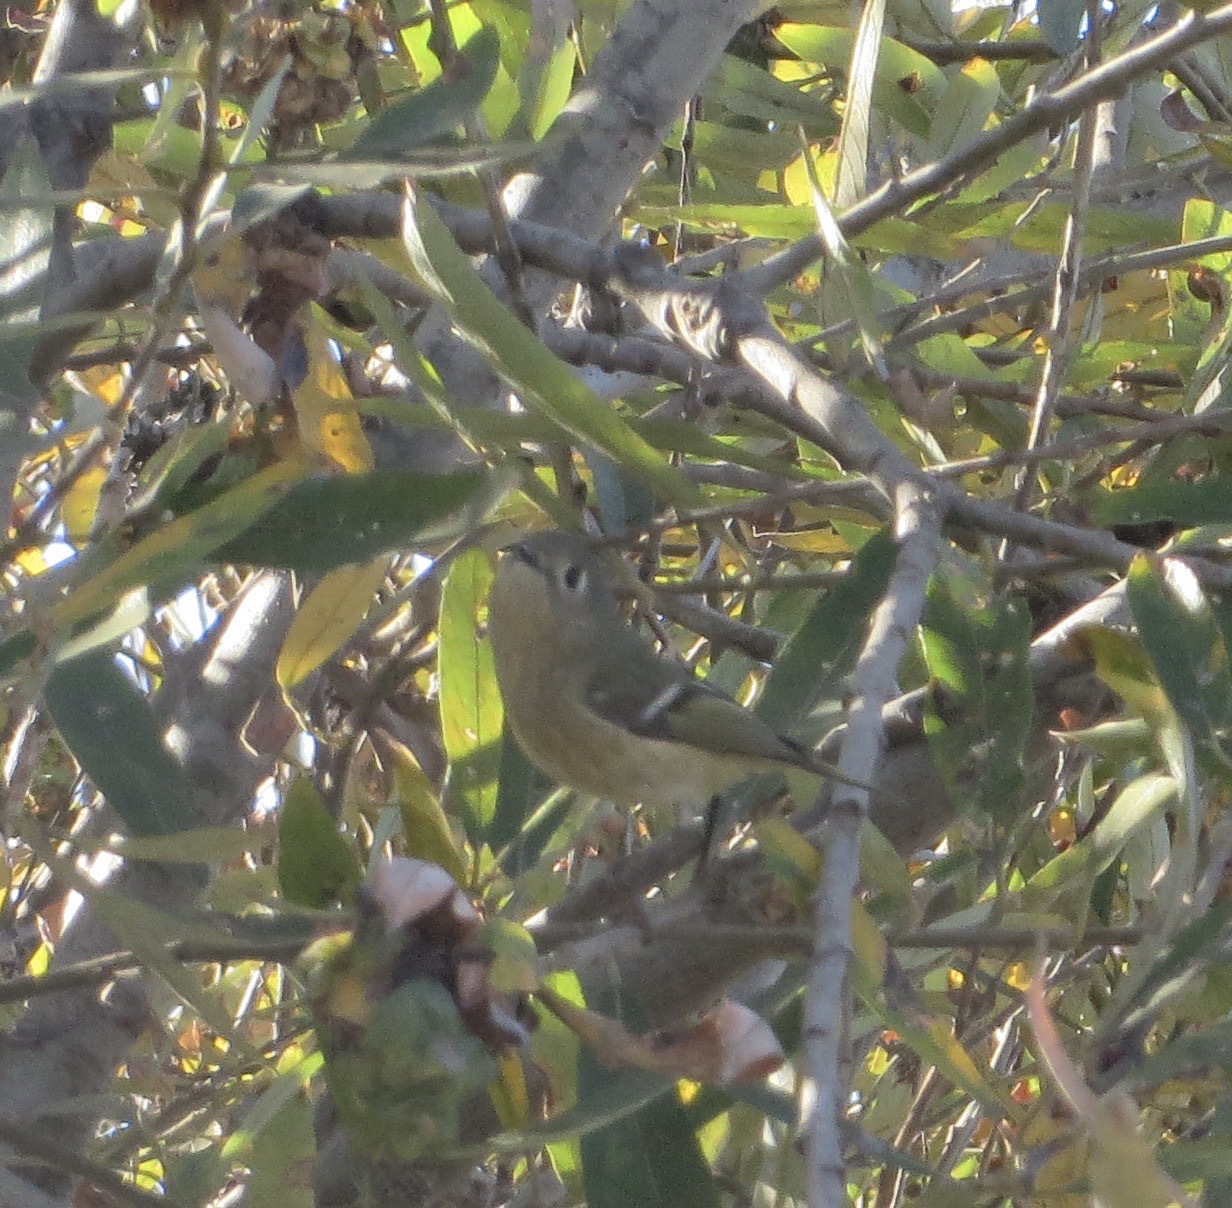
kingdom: Animalia
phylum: Chordata
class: Aves
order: Passeriformes
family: Regulidae
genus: Regulus
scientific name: Regulus calendula
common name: Ruby-crowned kinglet
